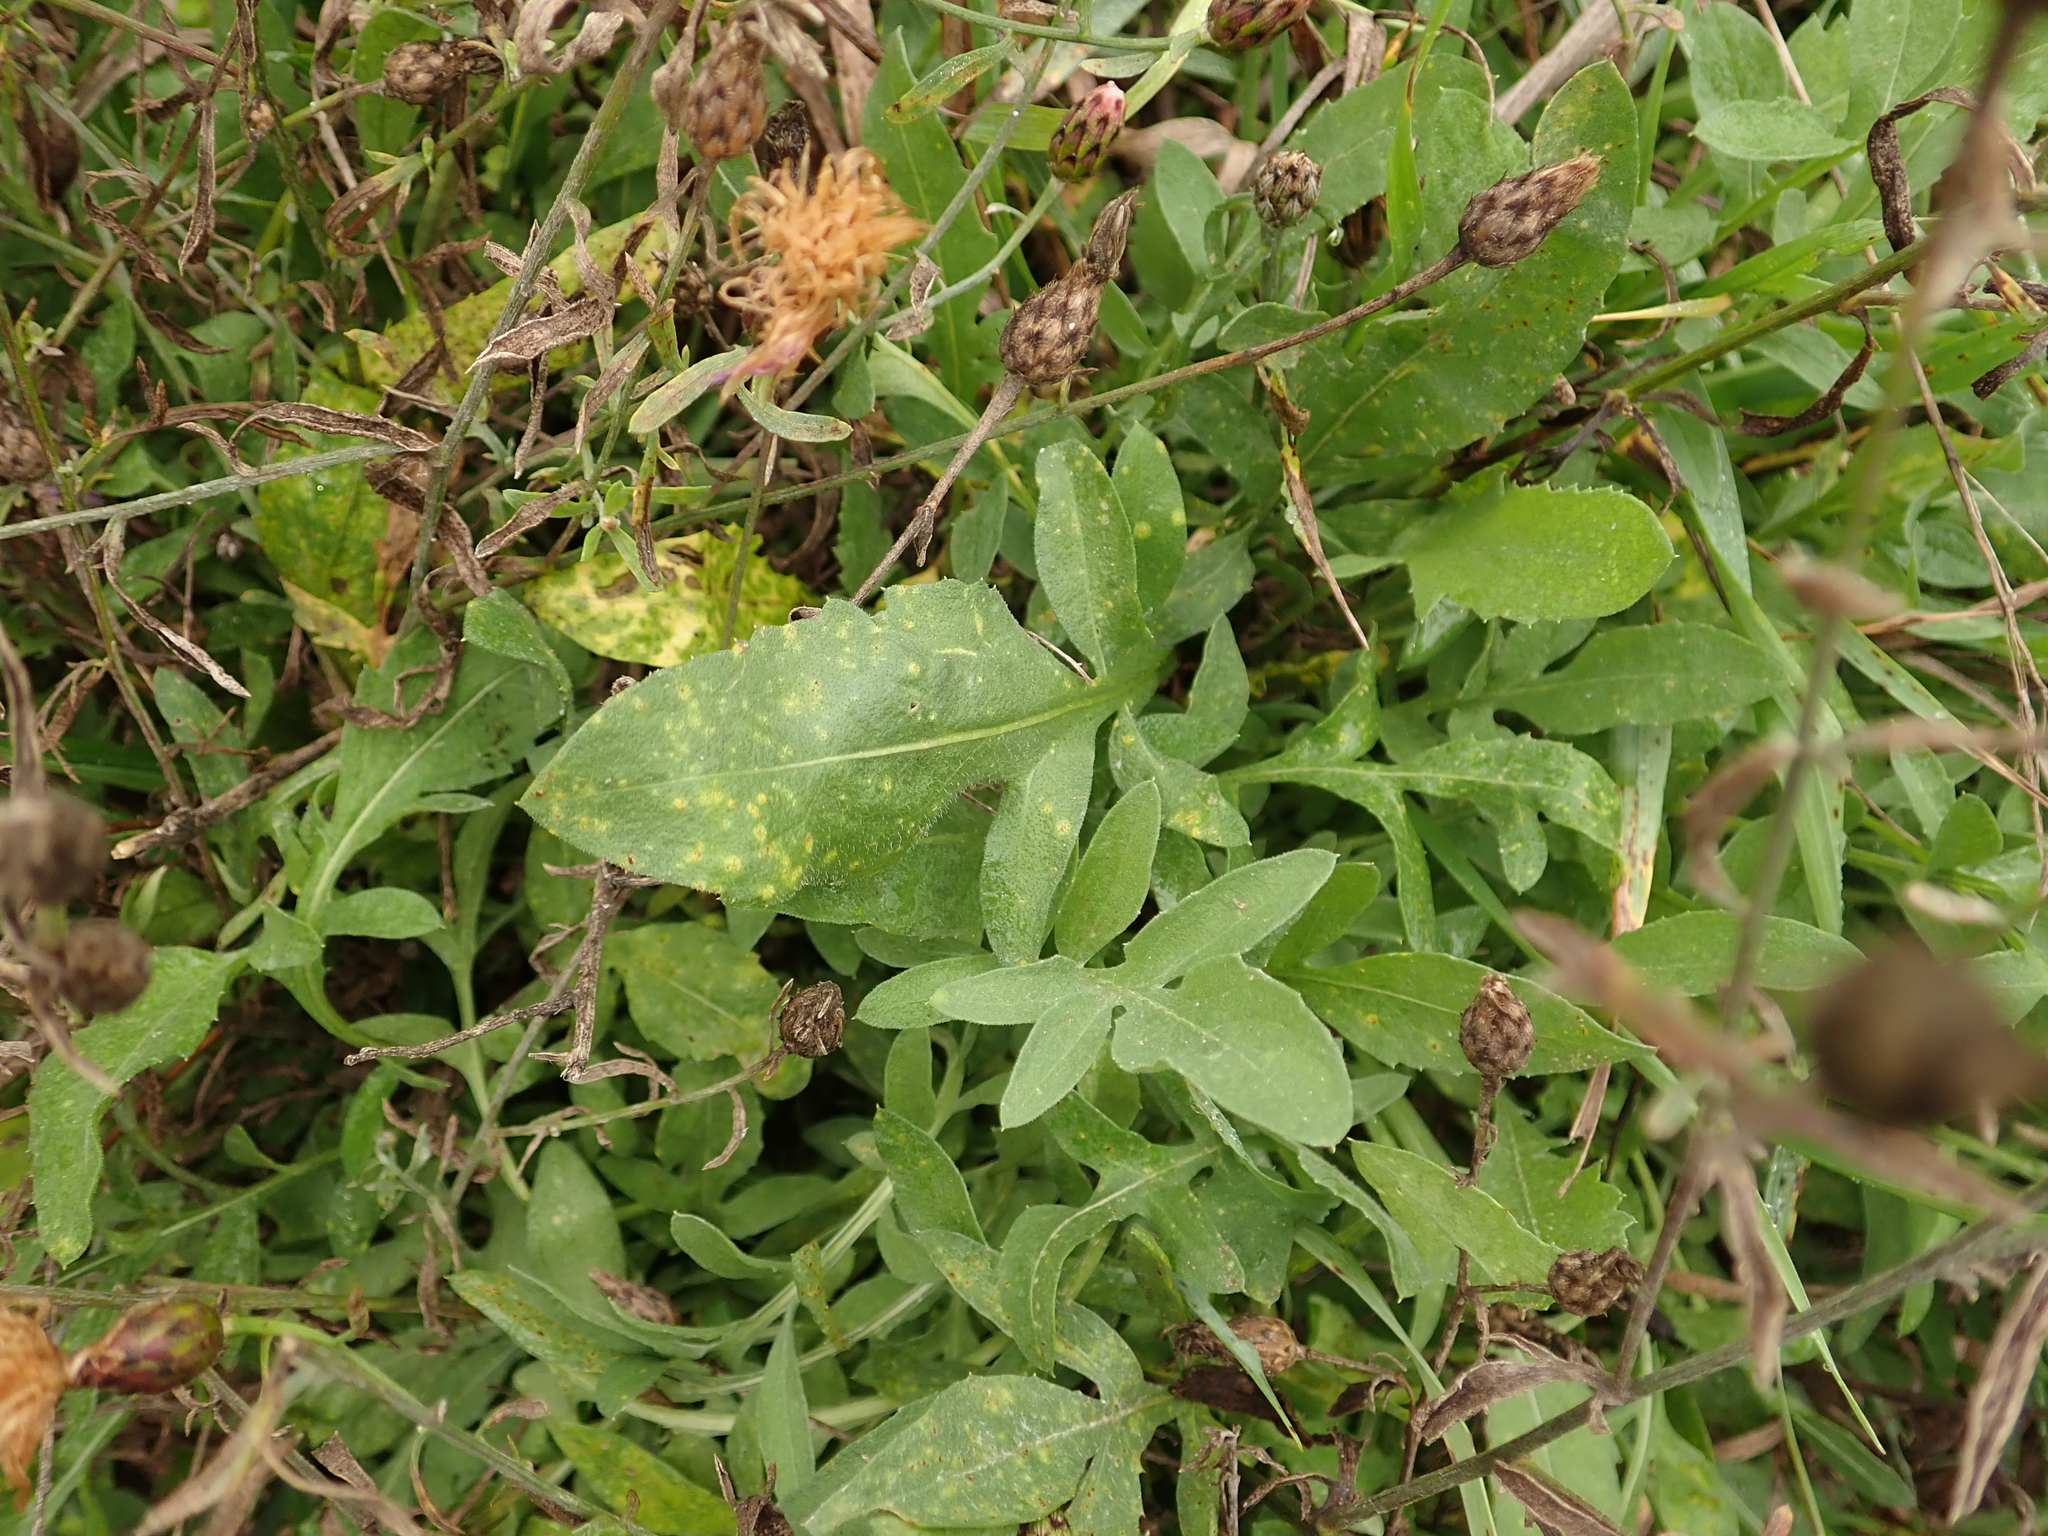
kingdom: Plantae
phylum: Tracheophyta
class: Magnoliopsida
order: Asterales
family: Asteraceae
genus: Centaurea
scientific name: Centaurea stoebe
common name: Spotted knapweed
